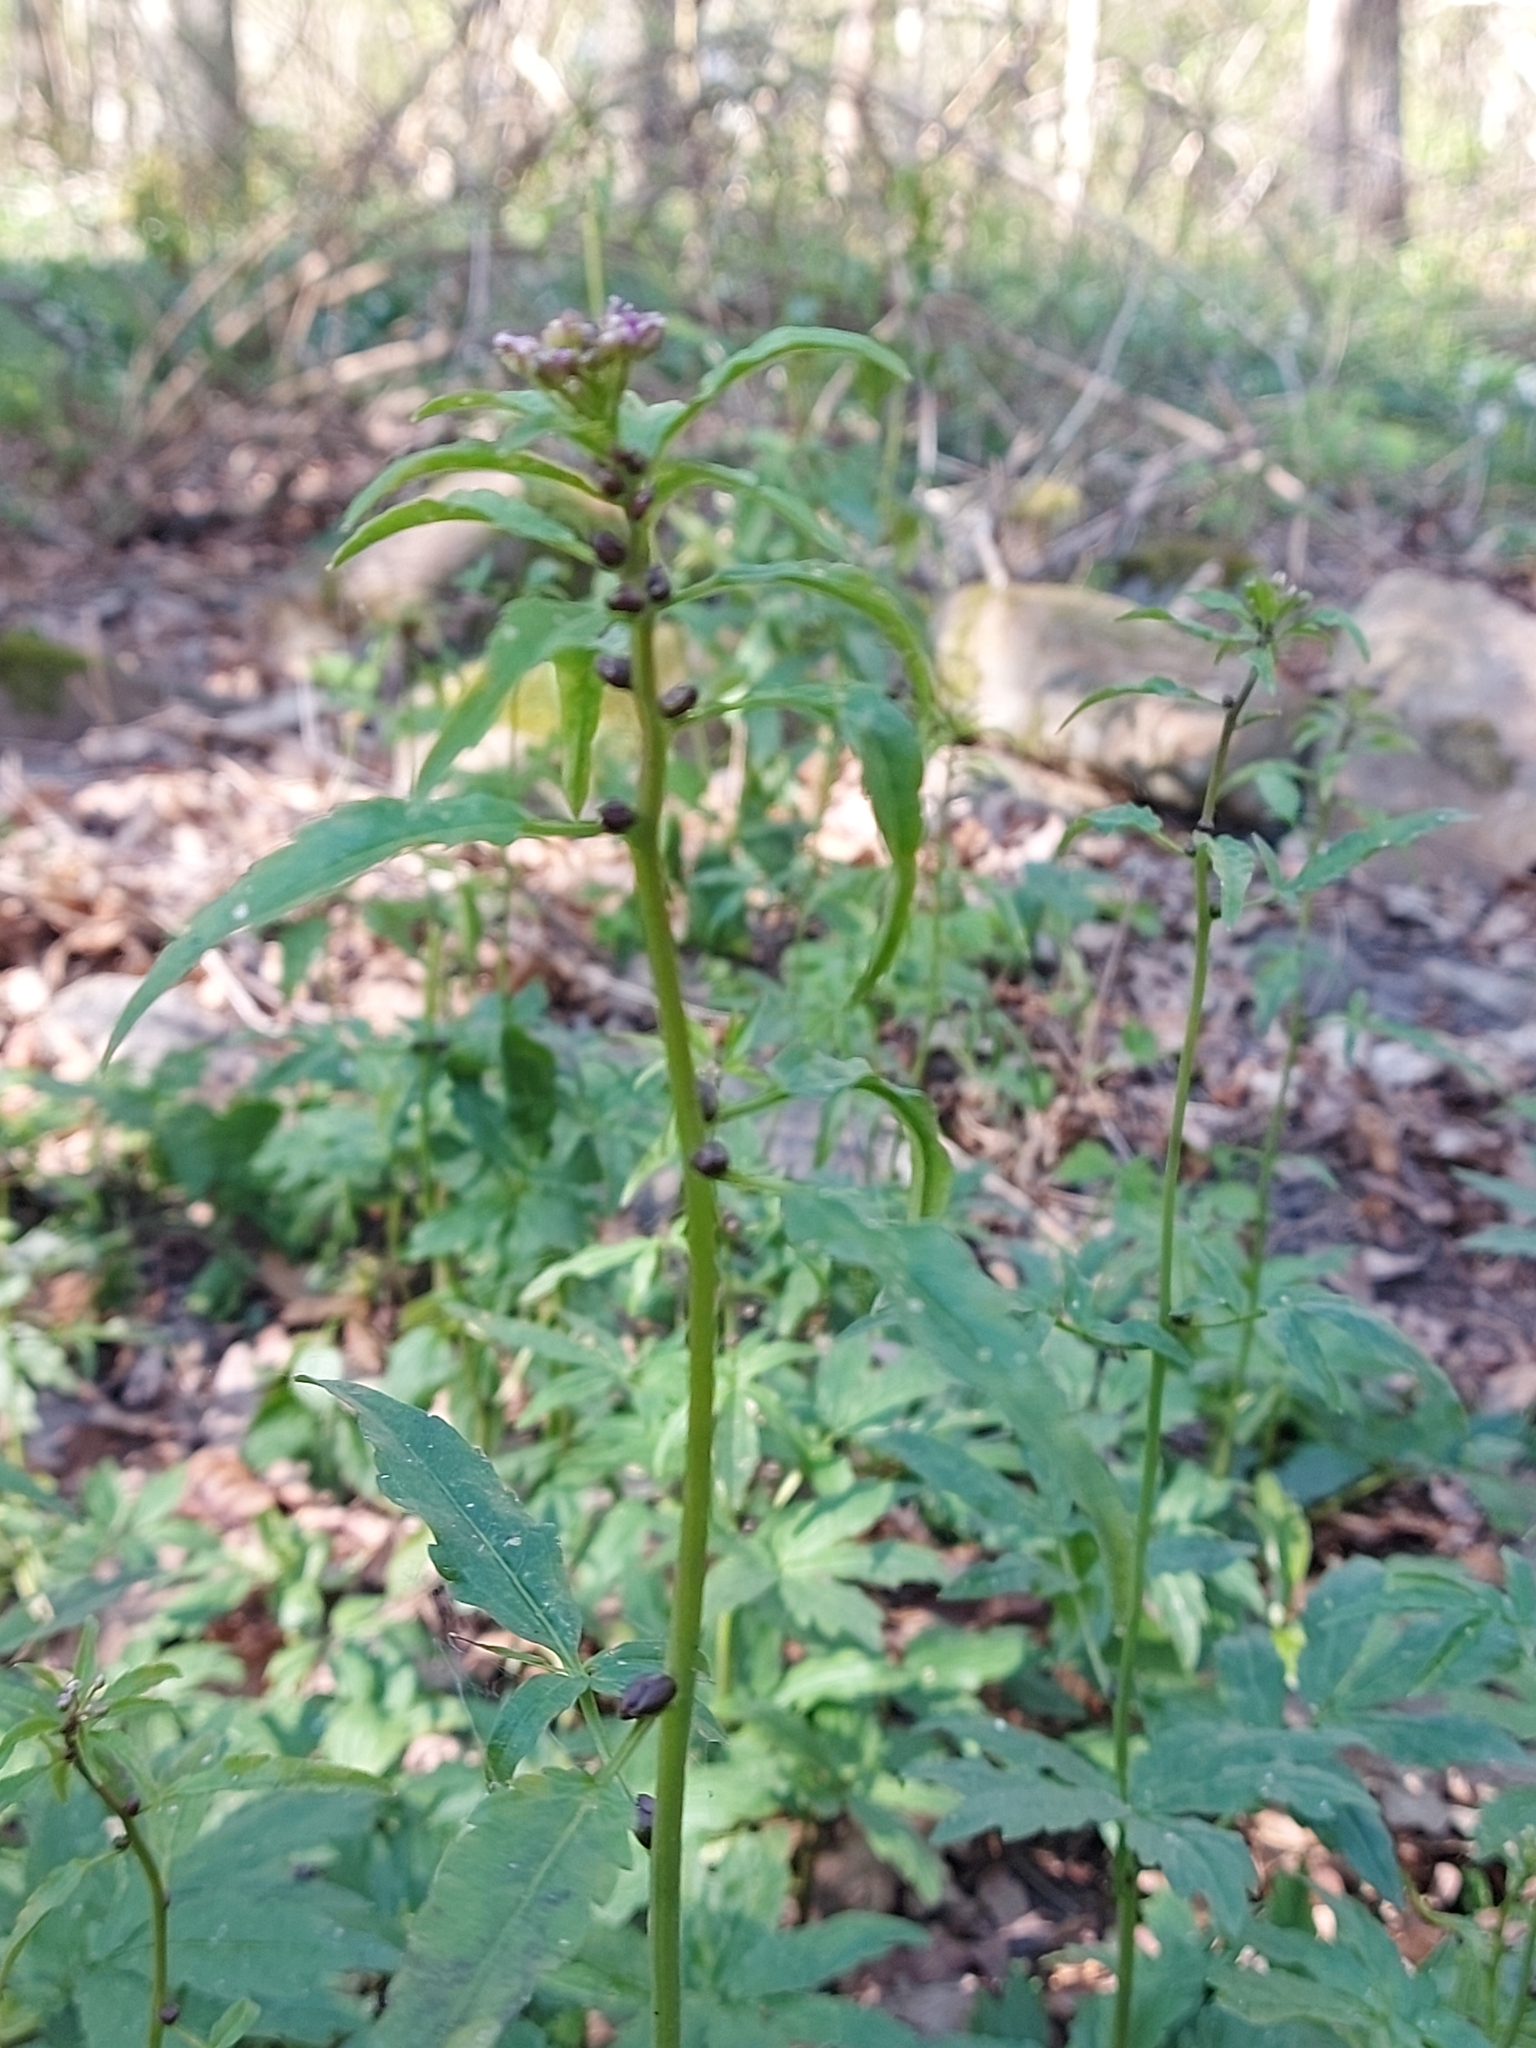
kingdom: Plantae
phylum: Tracheophyta
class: Magnoliopsida
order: Brassicales
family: Brassicaceae
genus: Cardamine
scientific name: Cardamine bulbifera
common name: Coralroot bittercress
